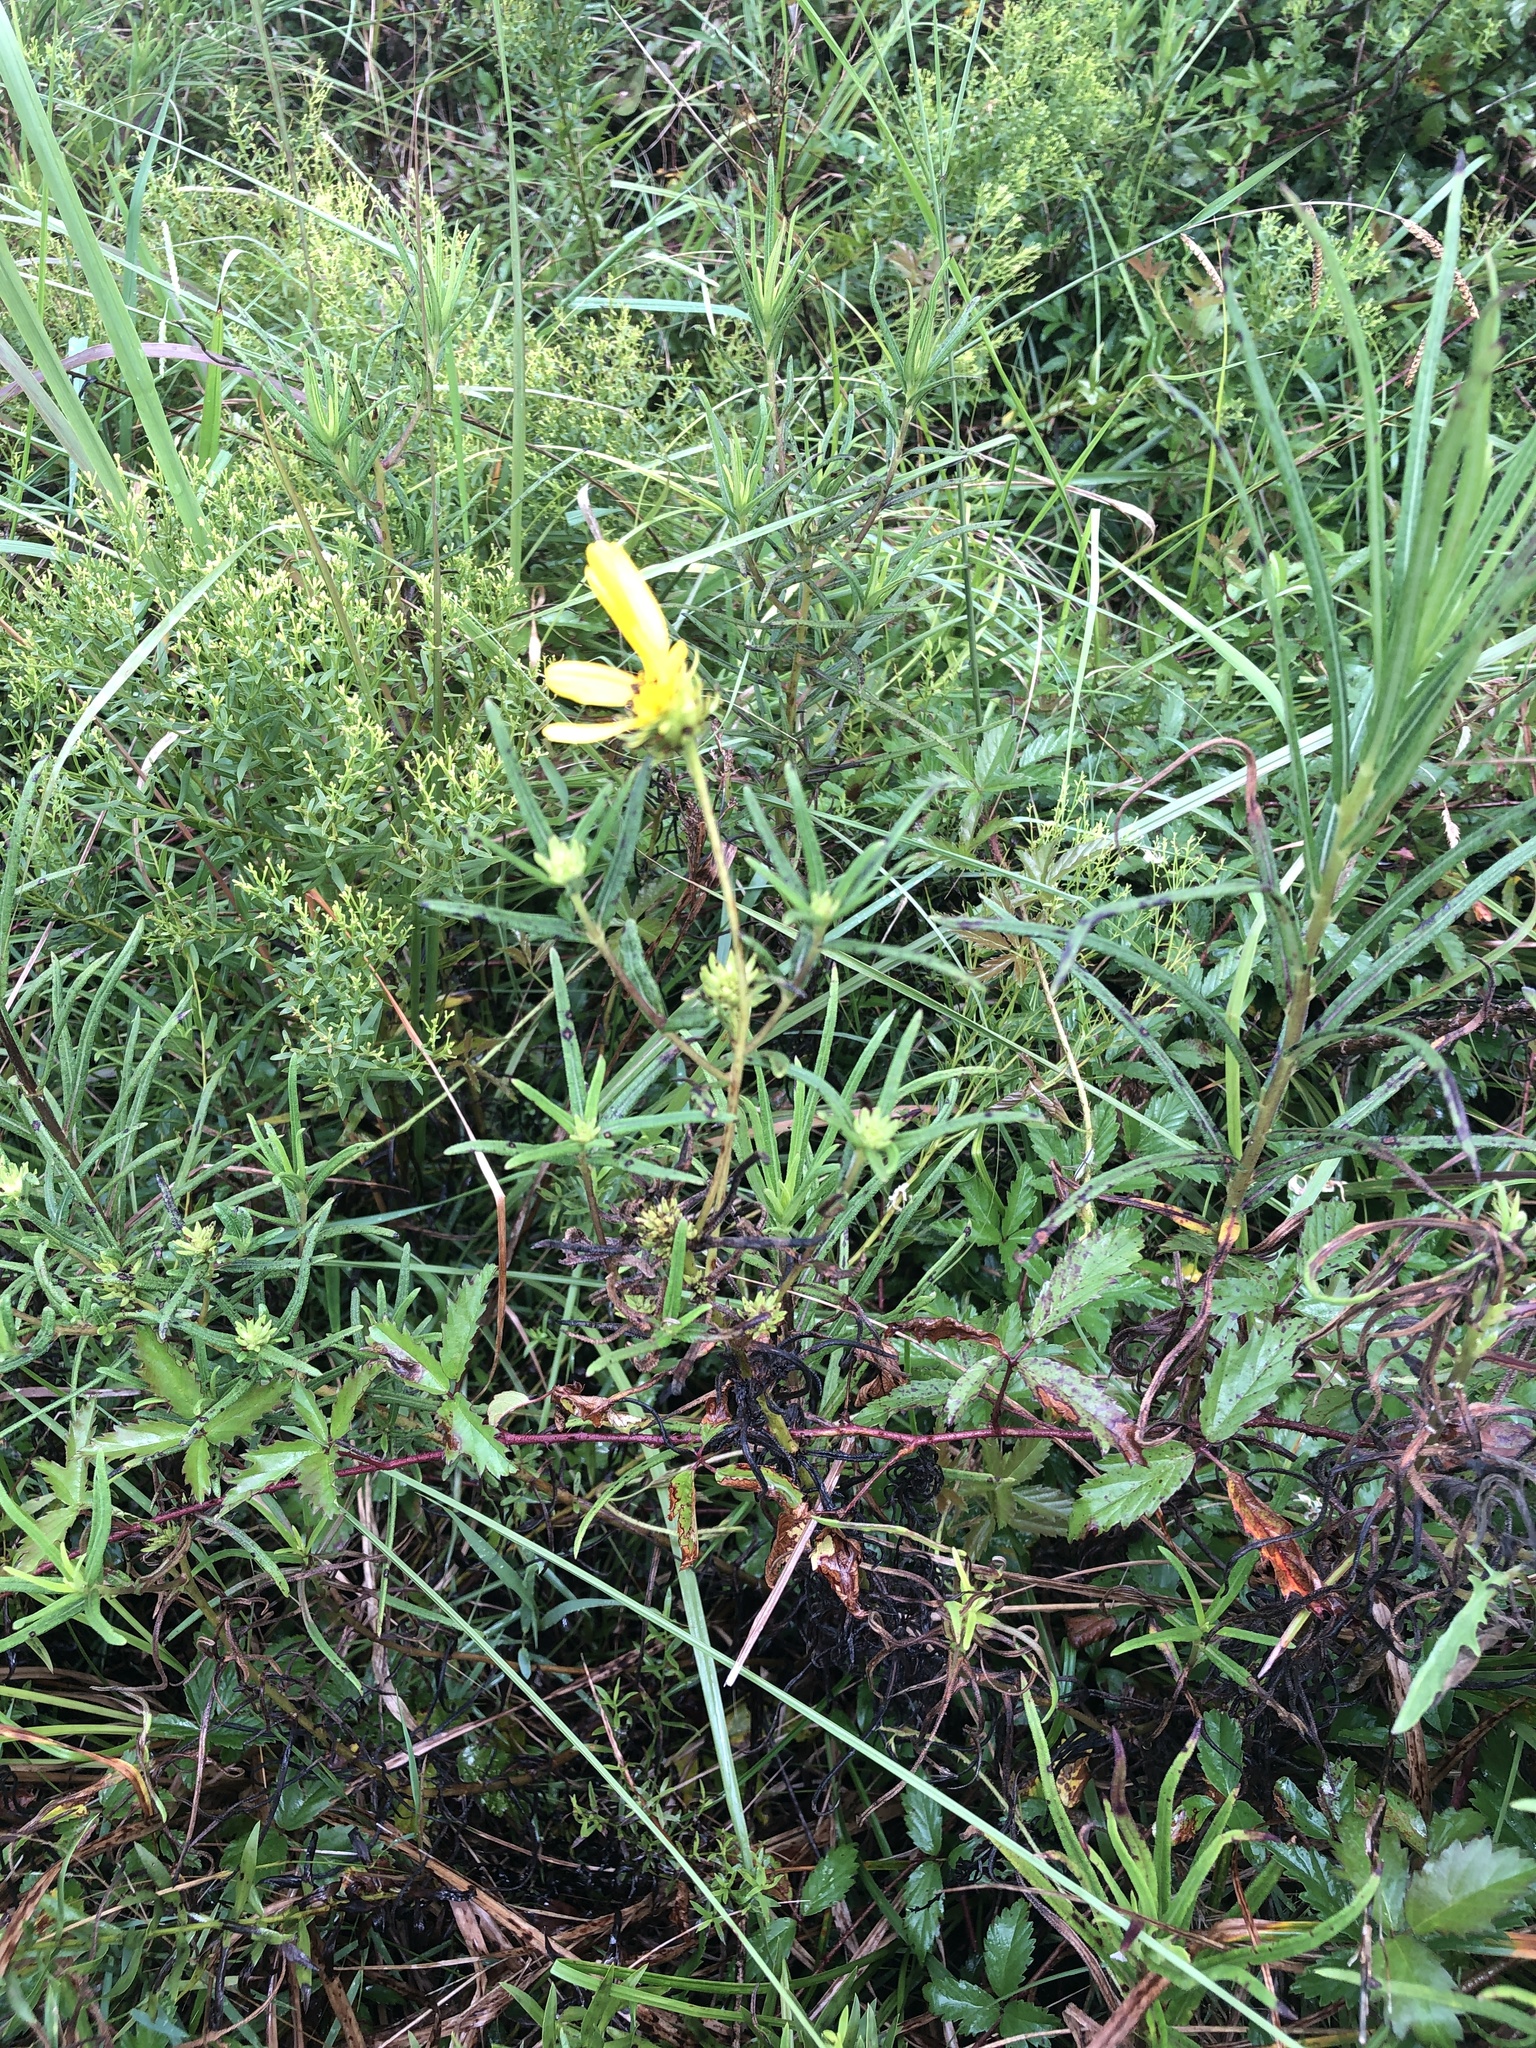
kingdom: Plantae
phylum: Tracheophyta
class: Magnoliopsida
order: Asterales
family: Asteraceae
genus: Helianthus
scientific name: Helianthus angustifolius
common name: Swamp sunflower
